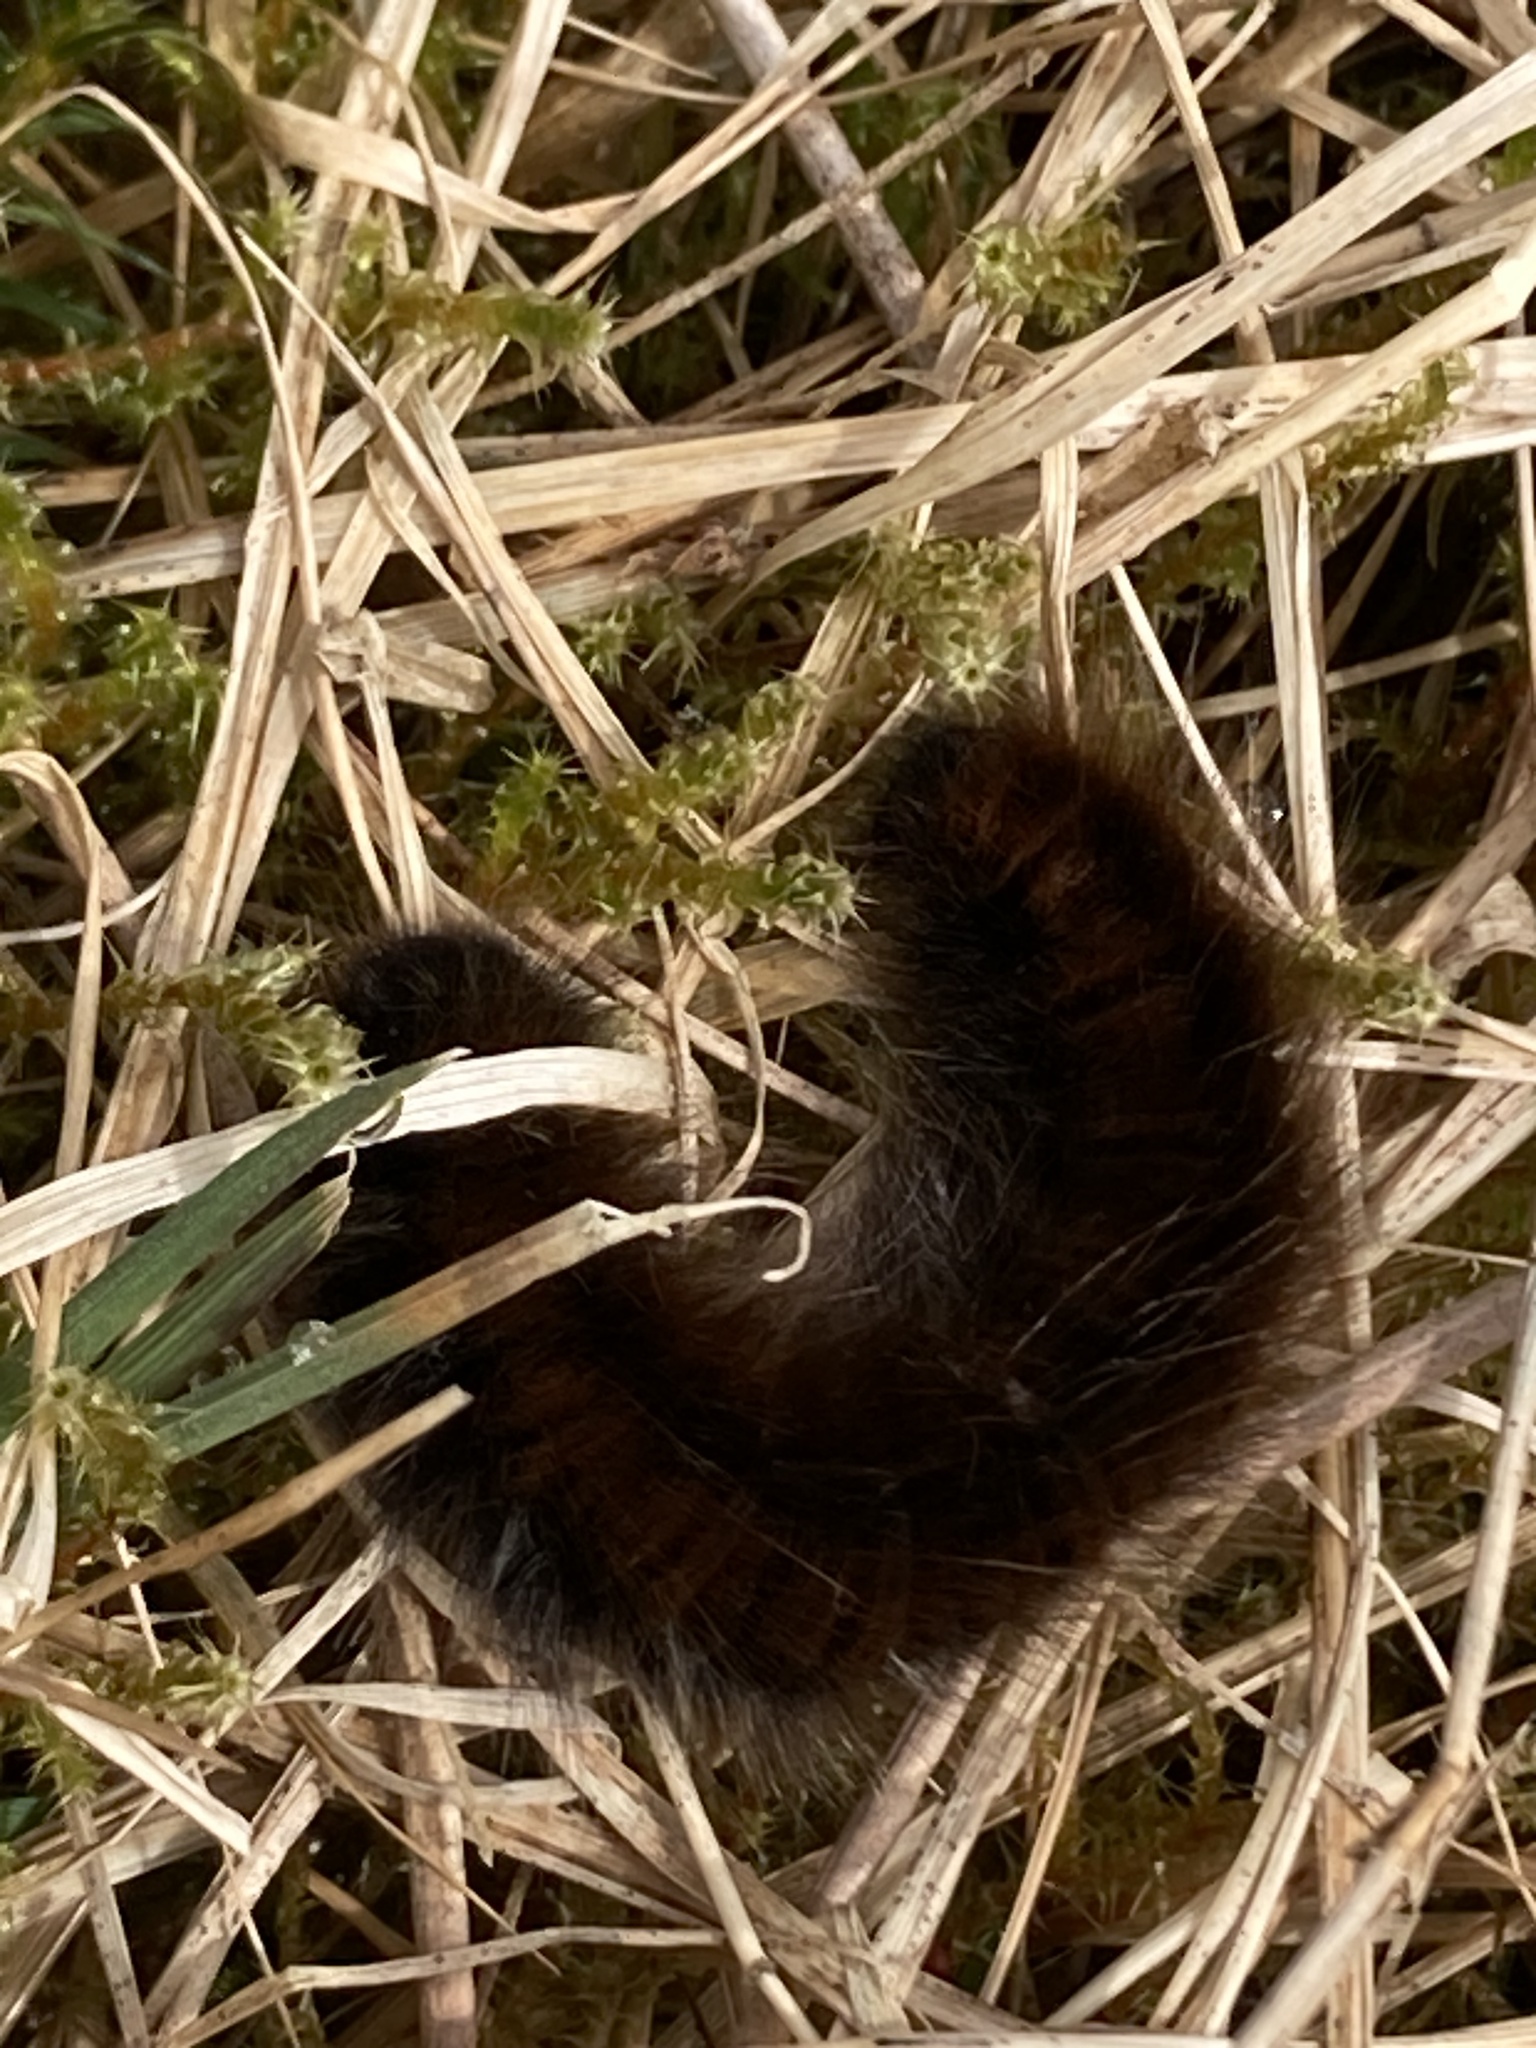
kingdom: Animalia
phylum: Arthropoda
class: Insecta
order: Lepidoptera
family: Lasiocampidae
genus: Macrothylacia
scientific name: Macrothylacia rubi
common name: Fox moth
